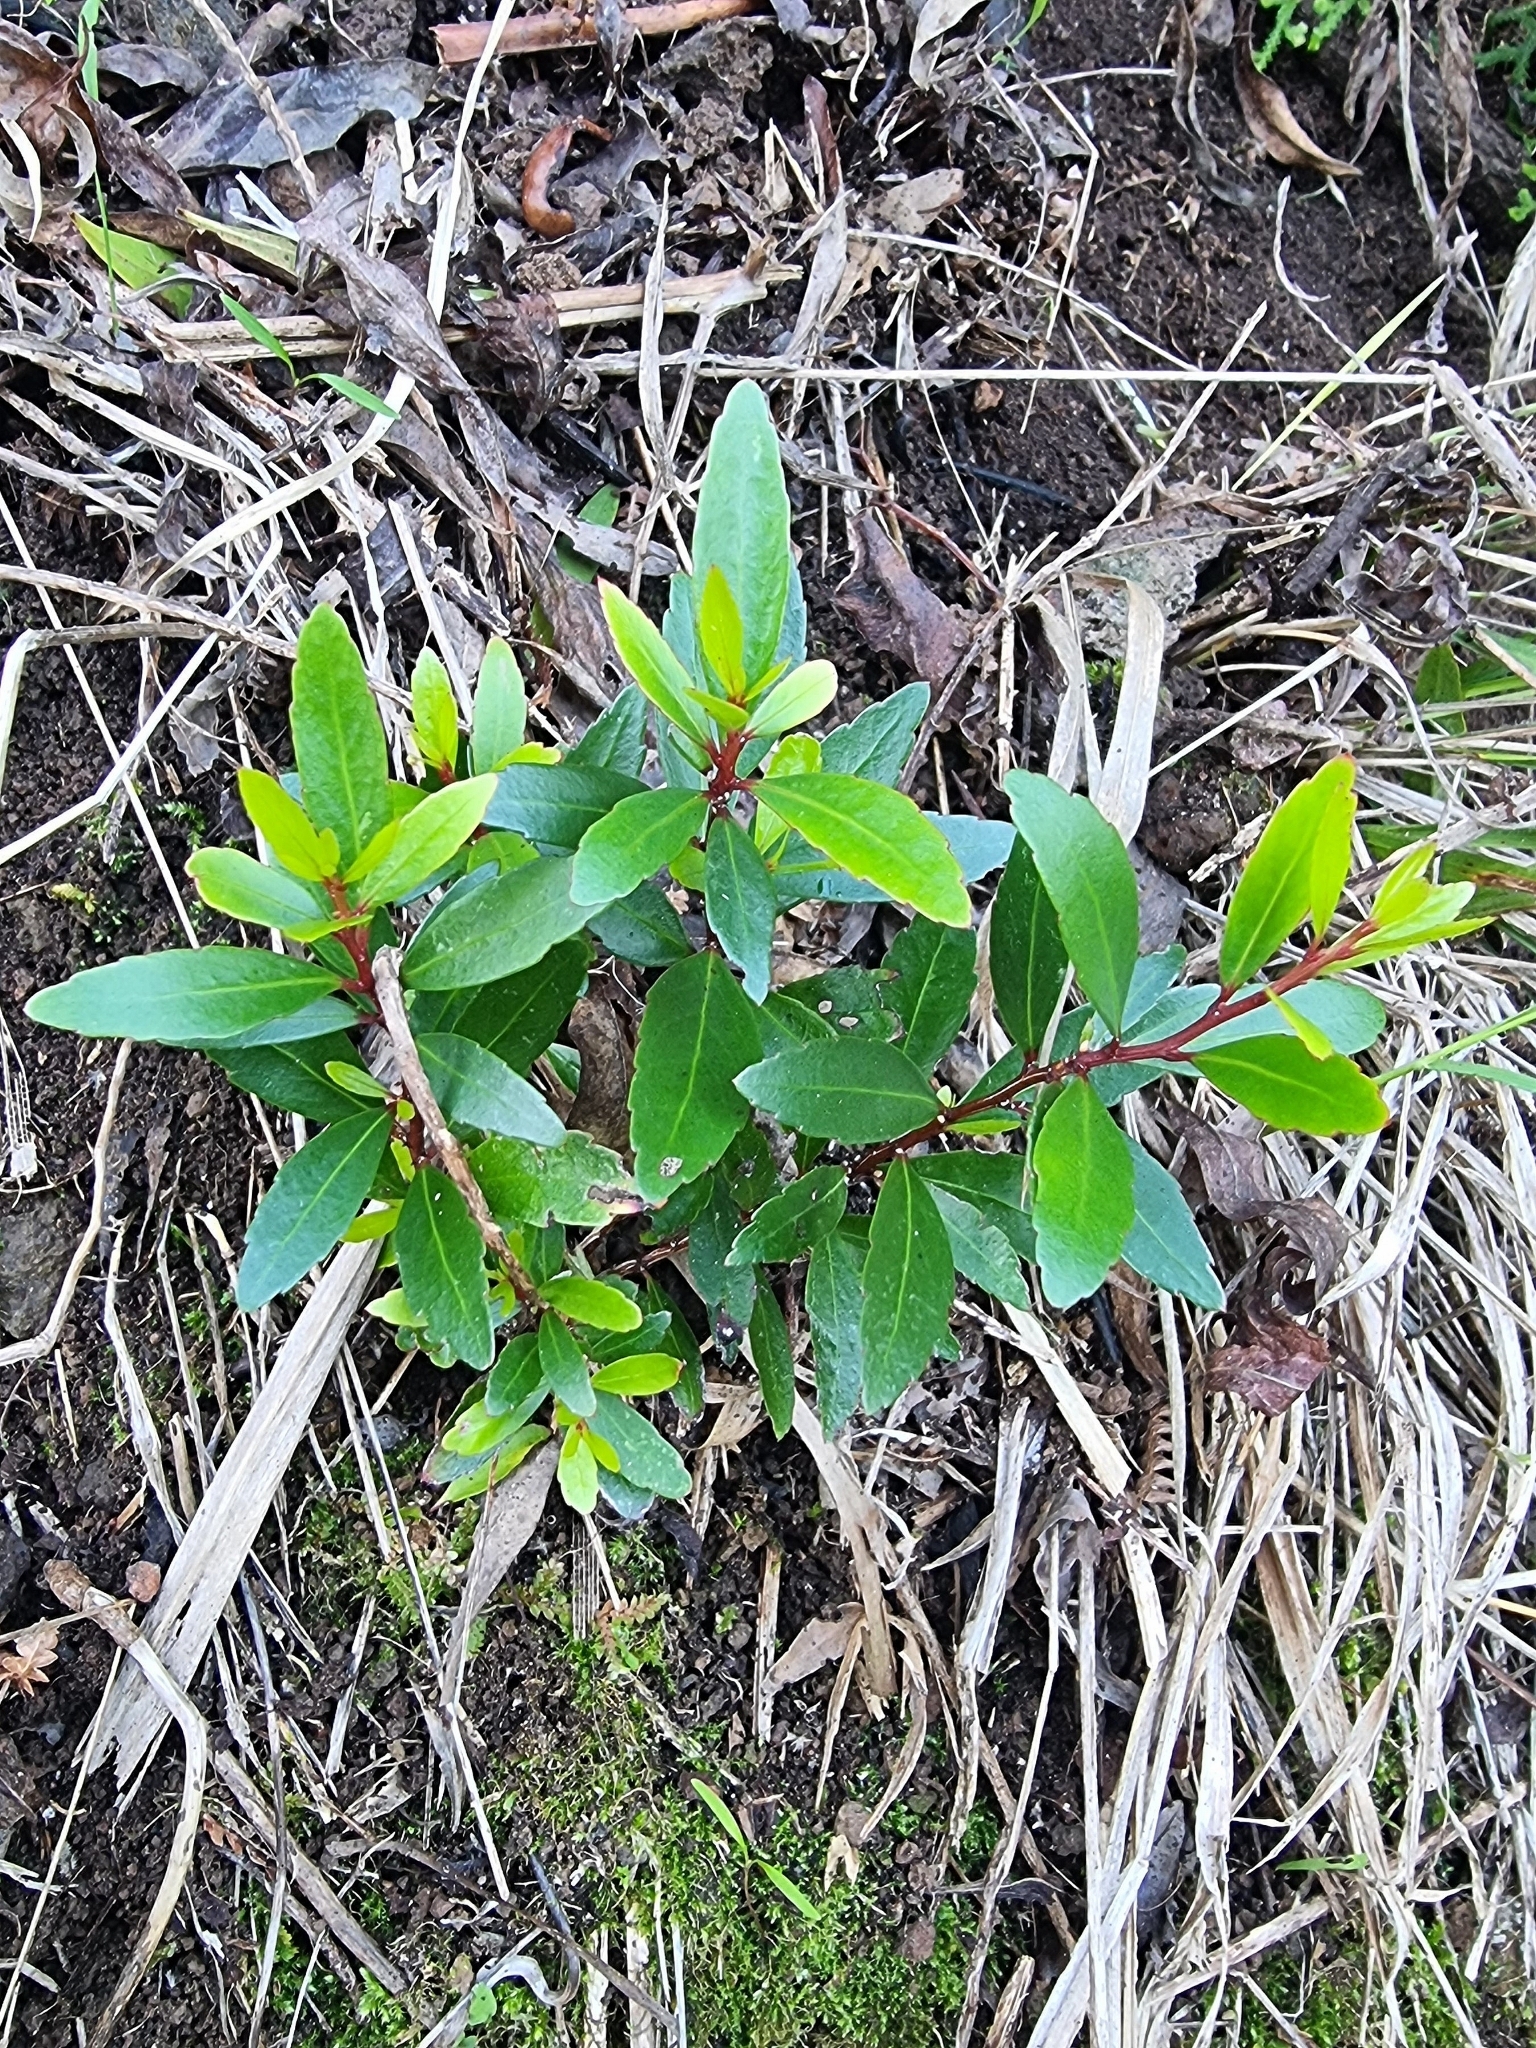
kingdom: Plantae
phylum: Tracheophyta
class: Magnoliopsida
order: Celastrales
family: Celastraceae
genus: Gymnosporia
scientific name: Gymnosporia dryandri
